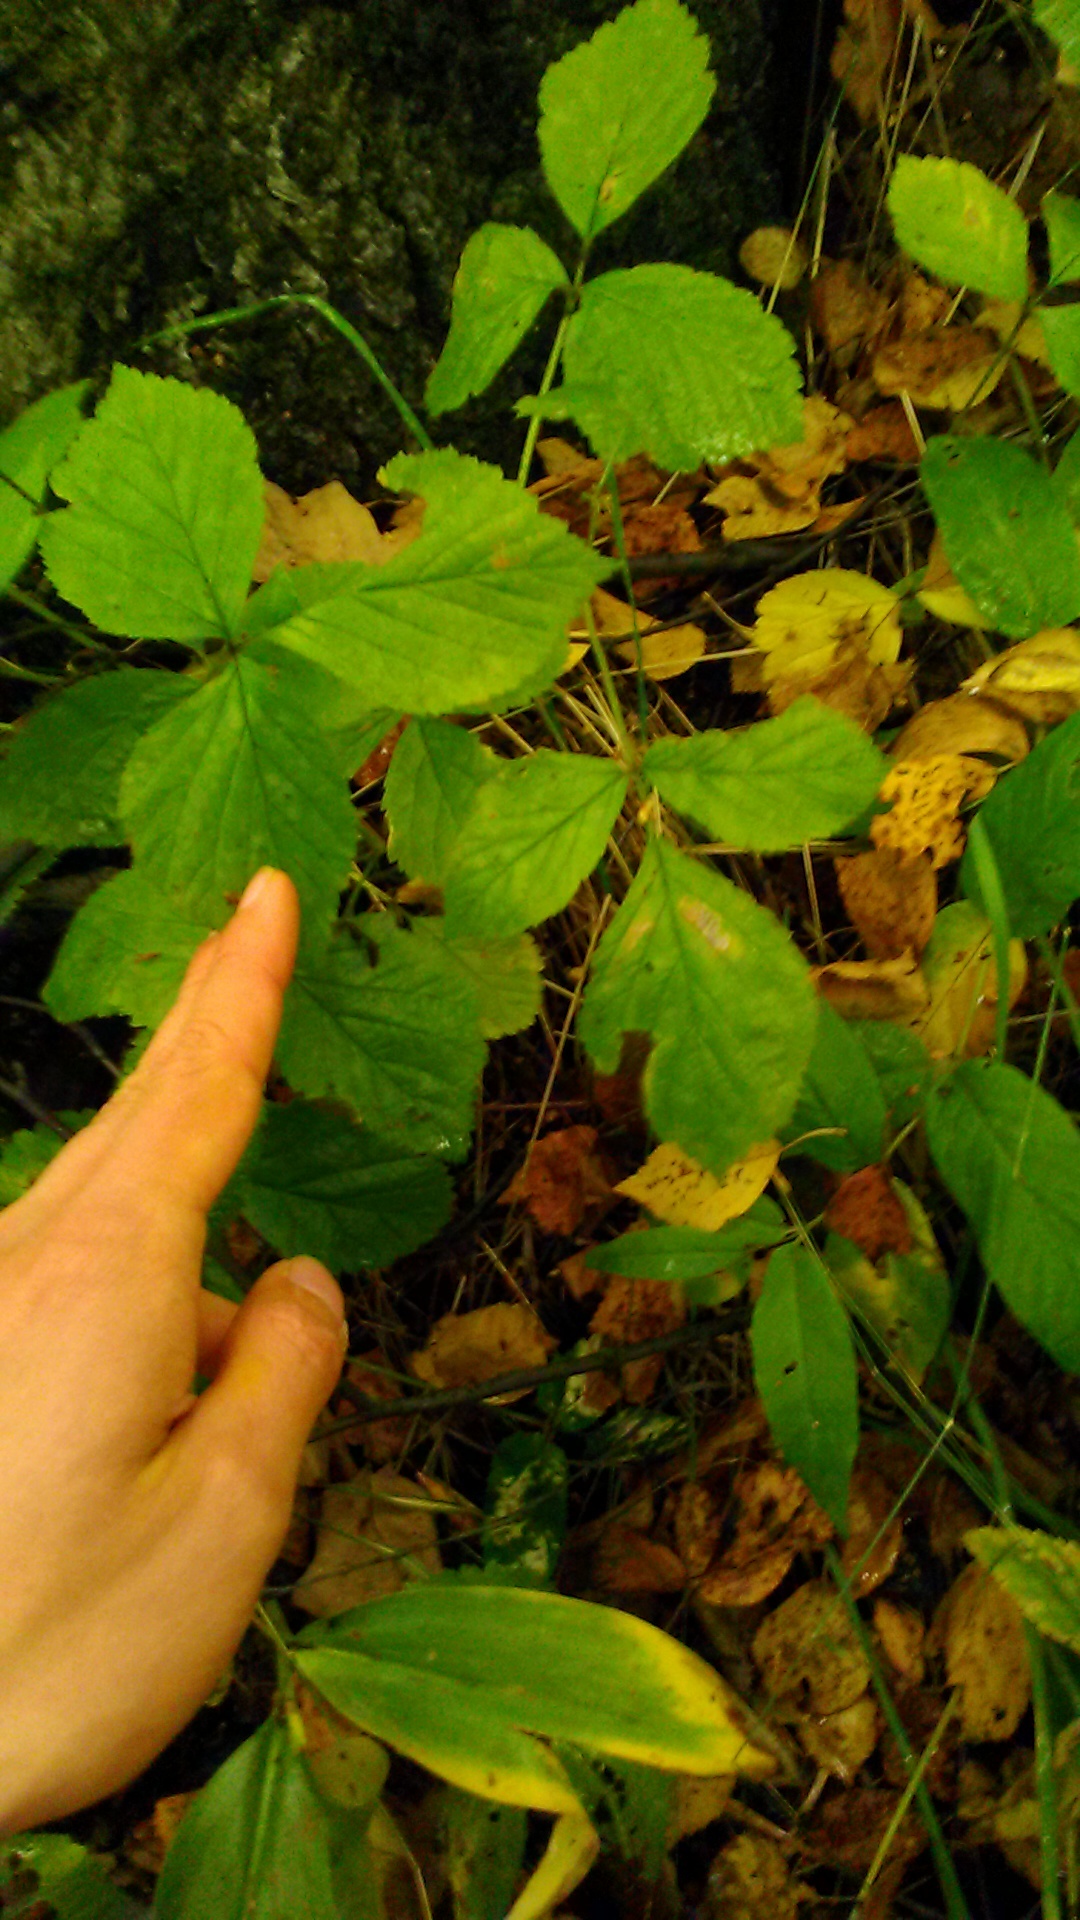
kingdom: Plantae
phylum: Tracheophyta
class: Magnoliopsida
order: Rosales
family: Rosaceae
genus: Rubus
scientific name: Rubus saxatilis
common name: Stone bramble
